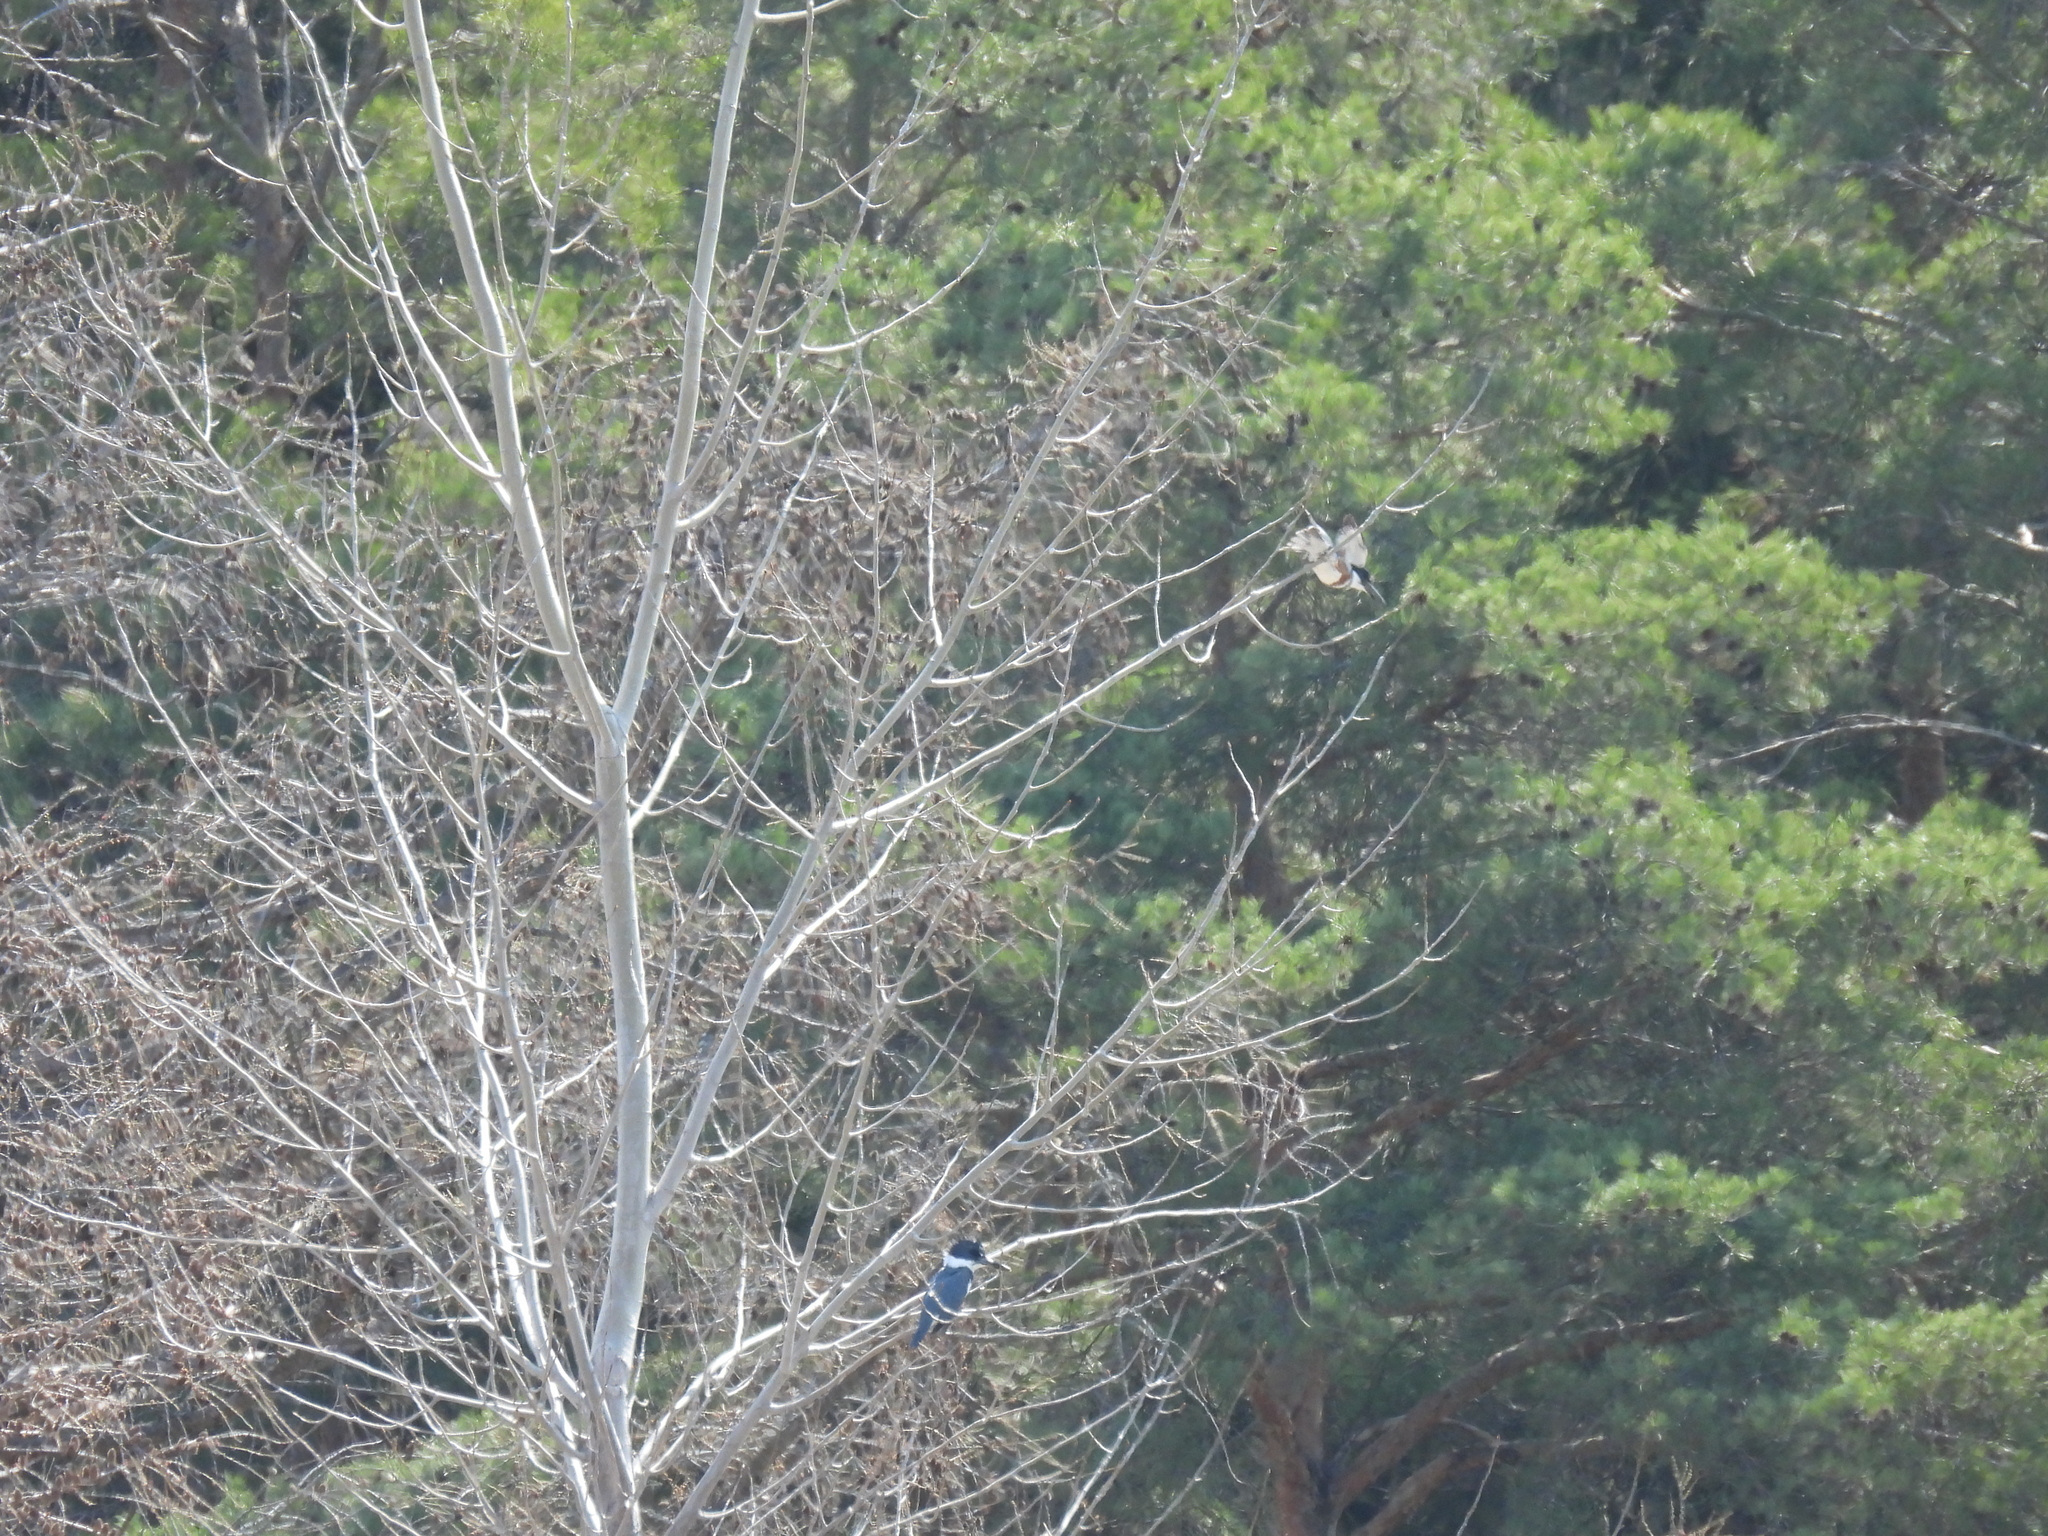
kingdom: Animalia
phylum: Chordata
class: Aves
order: Coraciiformes
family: Alcedinidae
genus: Megaceryle
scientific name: Megaceryle alcyon
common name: Belted kingfisher
